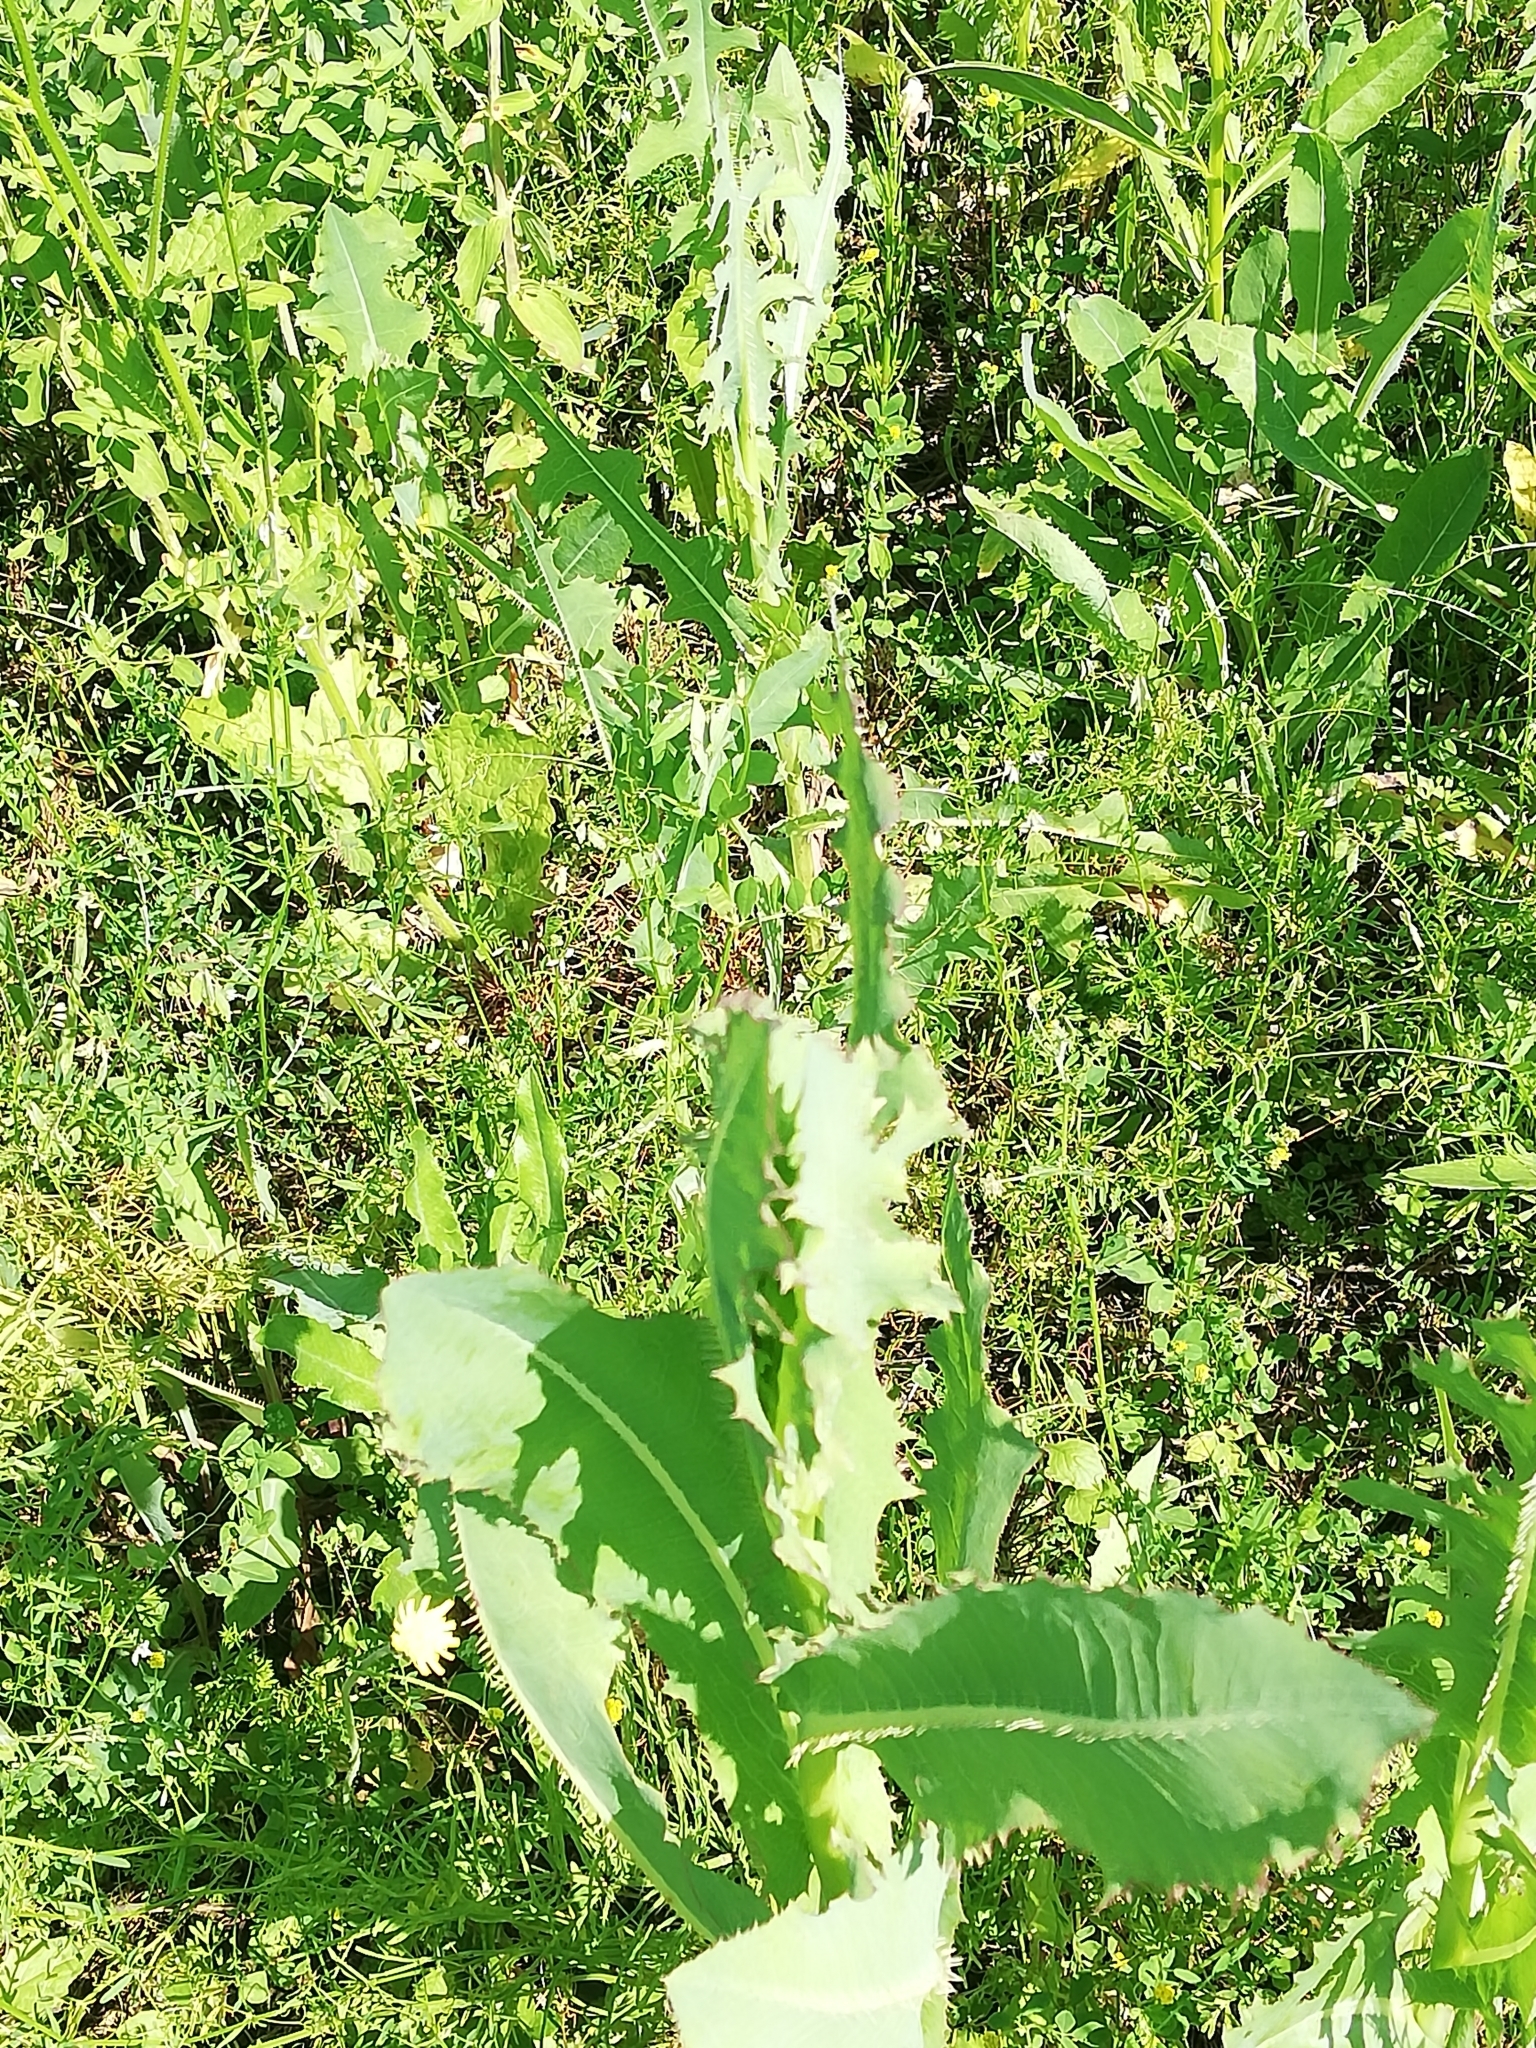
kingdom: Plantae
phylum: Tracheophyta
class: Magnoliopsida
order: Asterales
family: Asteraceae
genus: Lactuca
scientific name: Lactuca serriola
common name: Prickly lettuce
